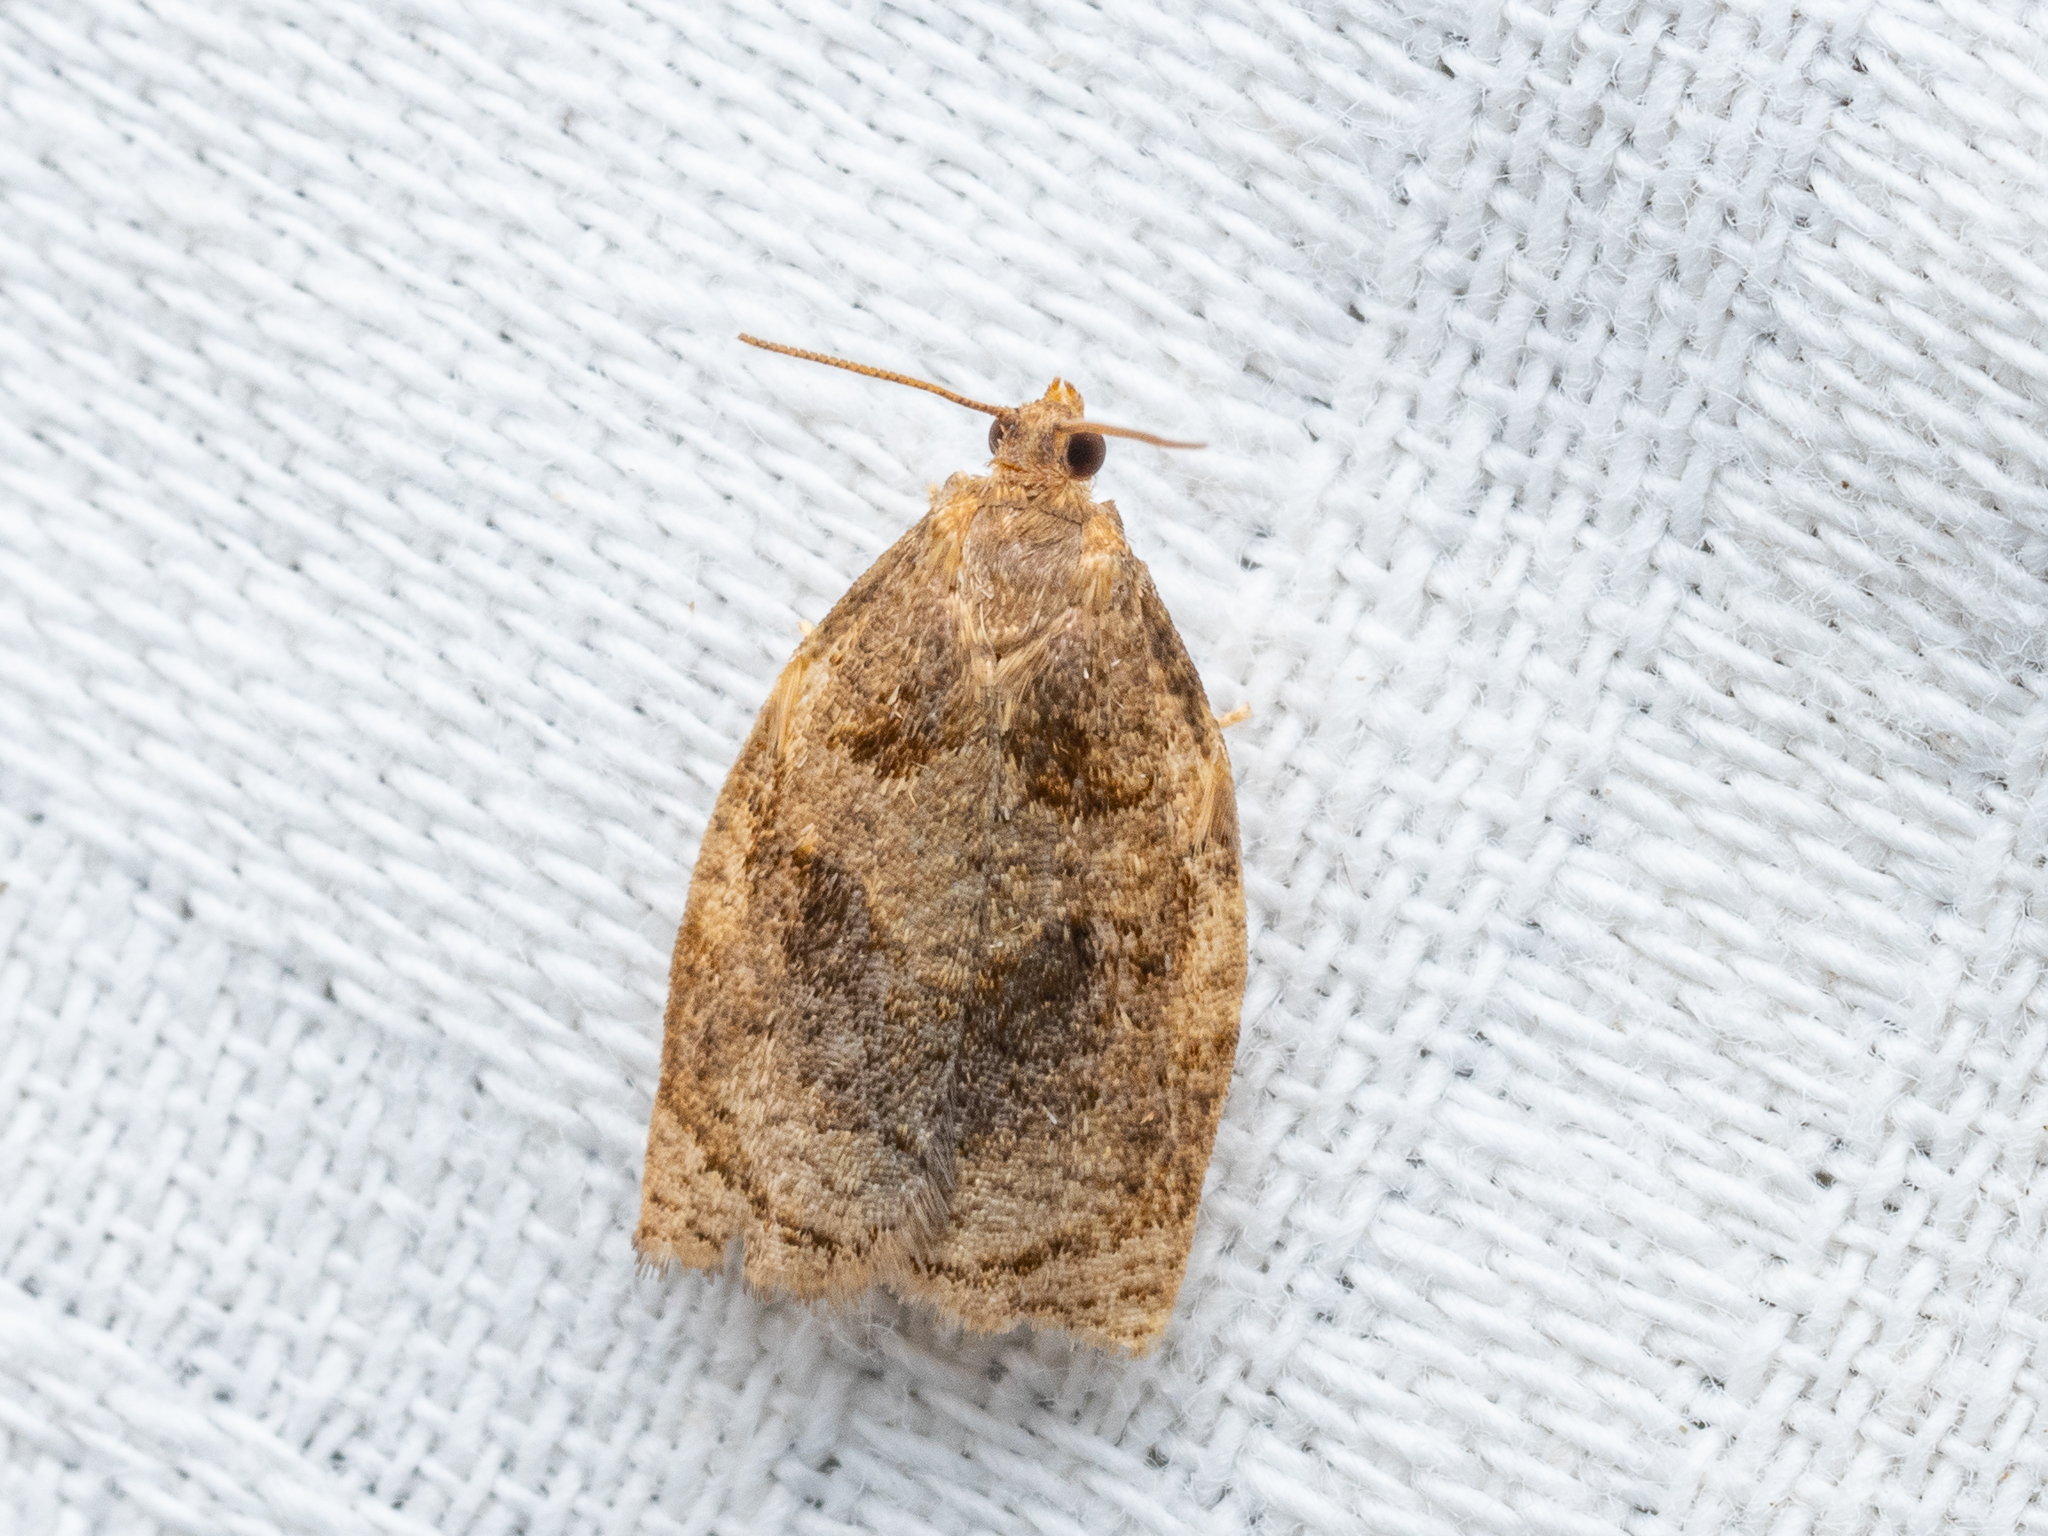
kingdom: Animalia
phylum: Arthropoda
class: Insecta
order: Lepidoptera
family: Tortricidae
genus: Archips
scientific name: Archips rosana
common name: Rose tortrix
